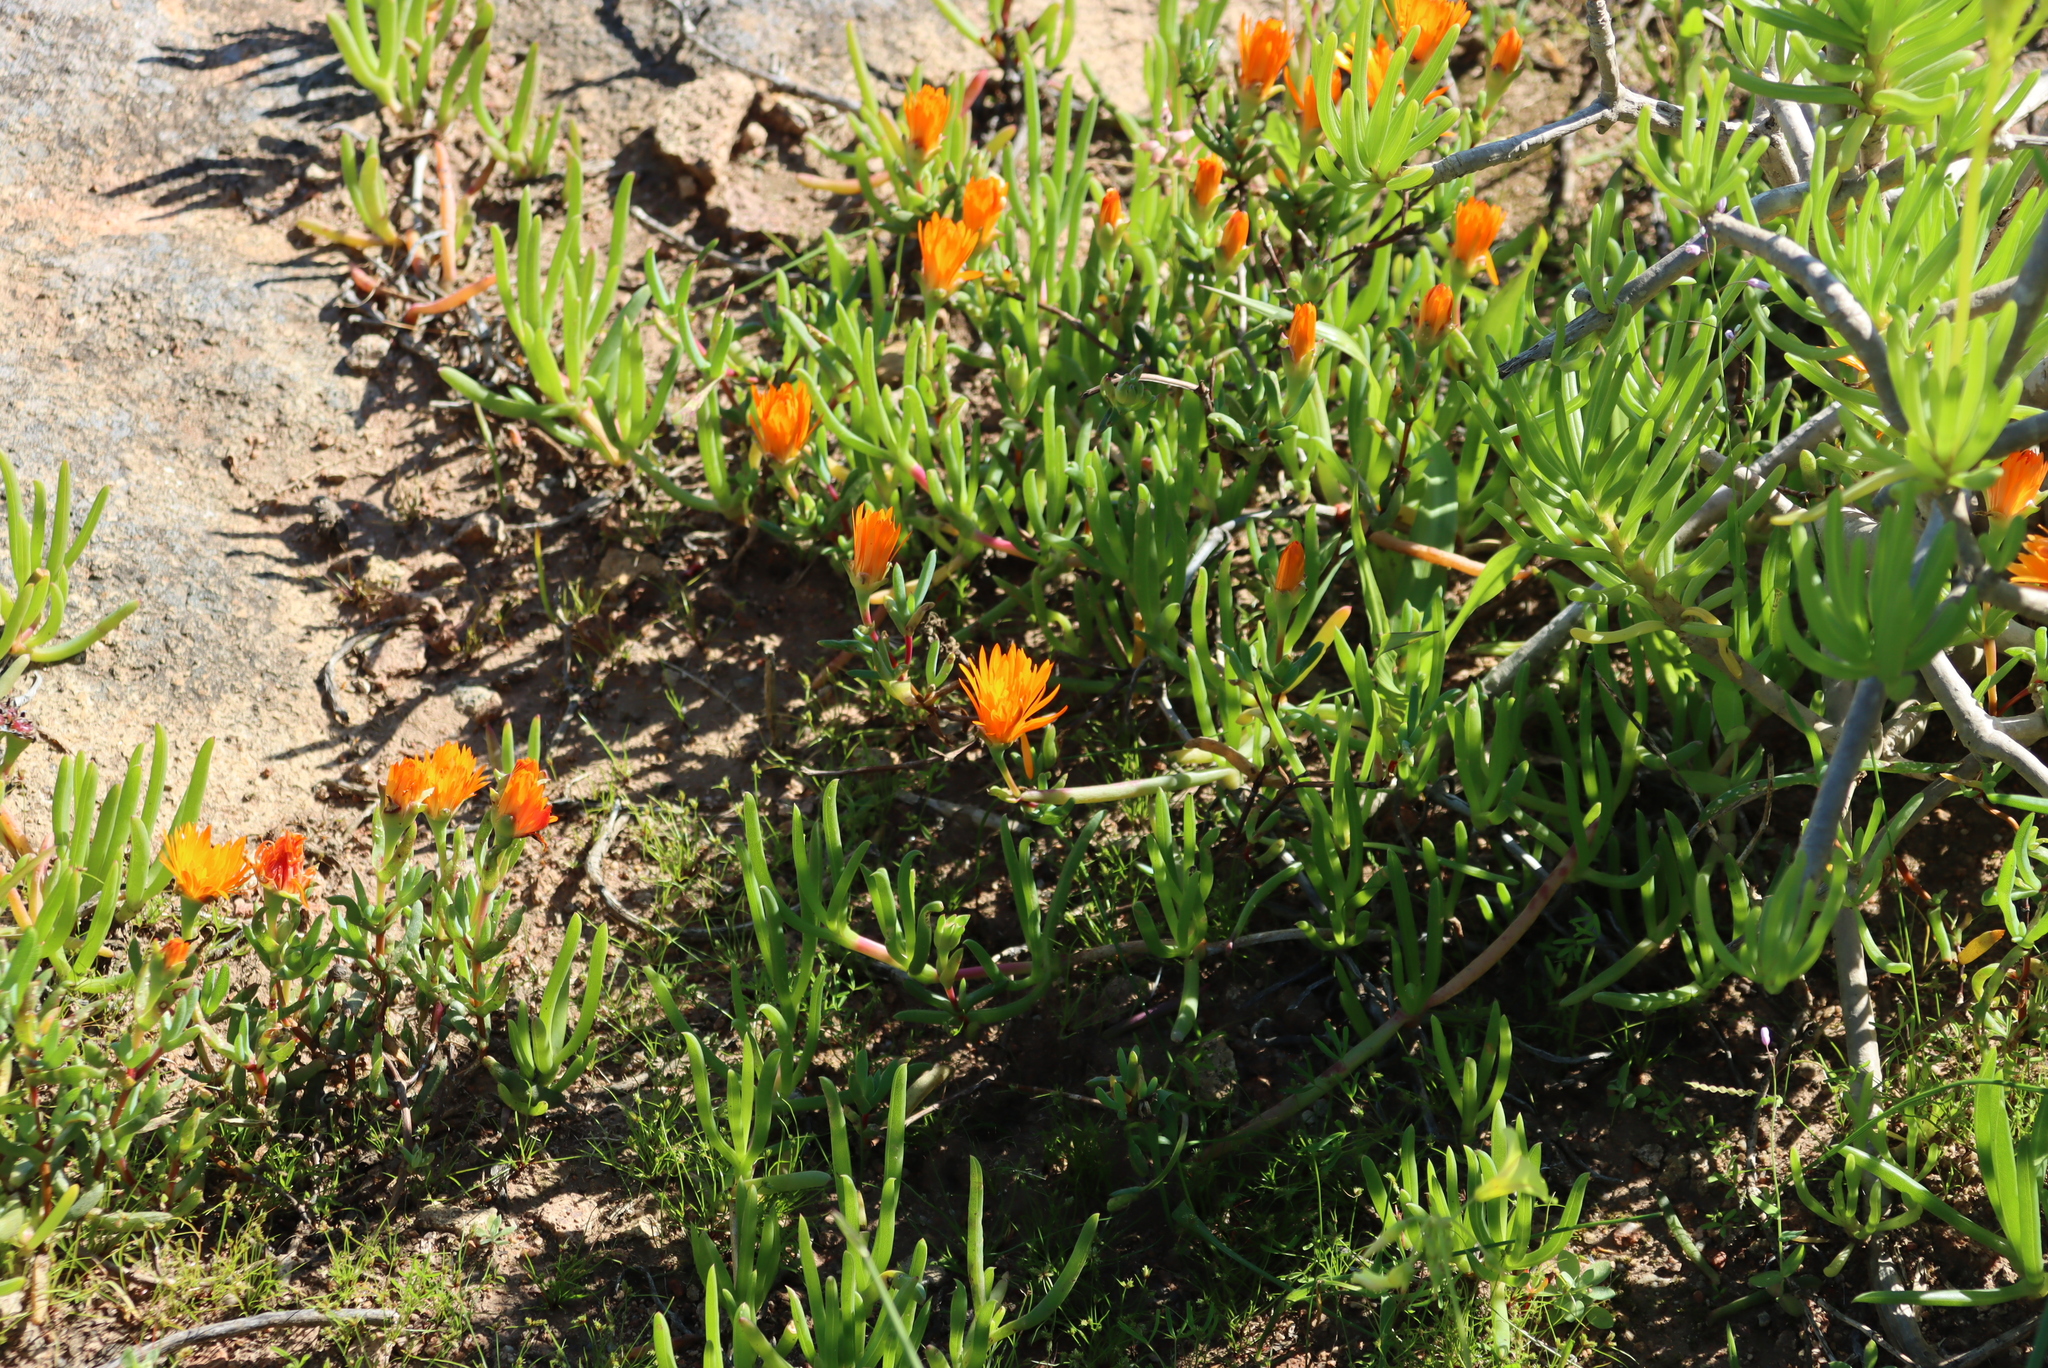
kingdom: Plantae
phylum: Tracheophyta
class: Magnoliopsida
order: Caryophyllales
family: Aizoaceae
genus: Lampranthus
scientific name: Lampranthus aureus
